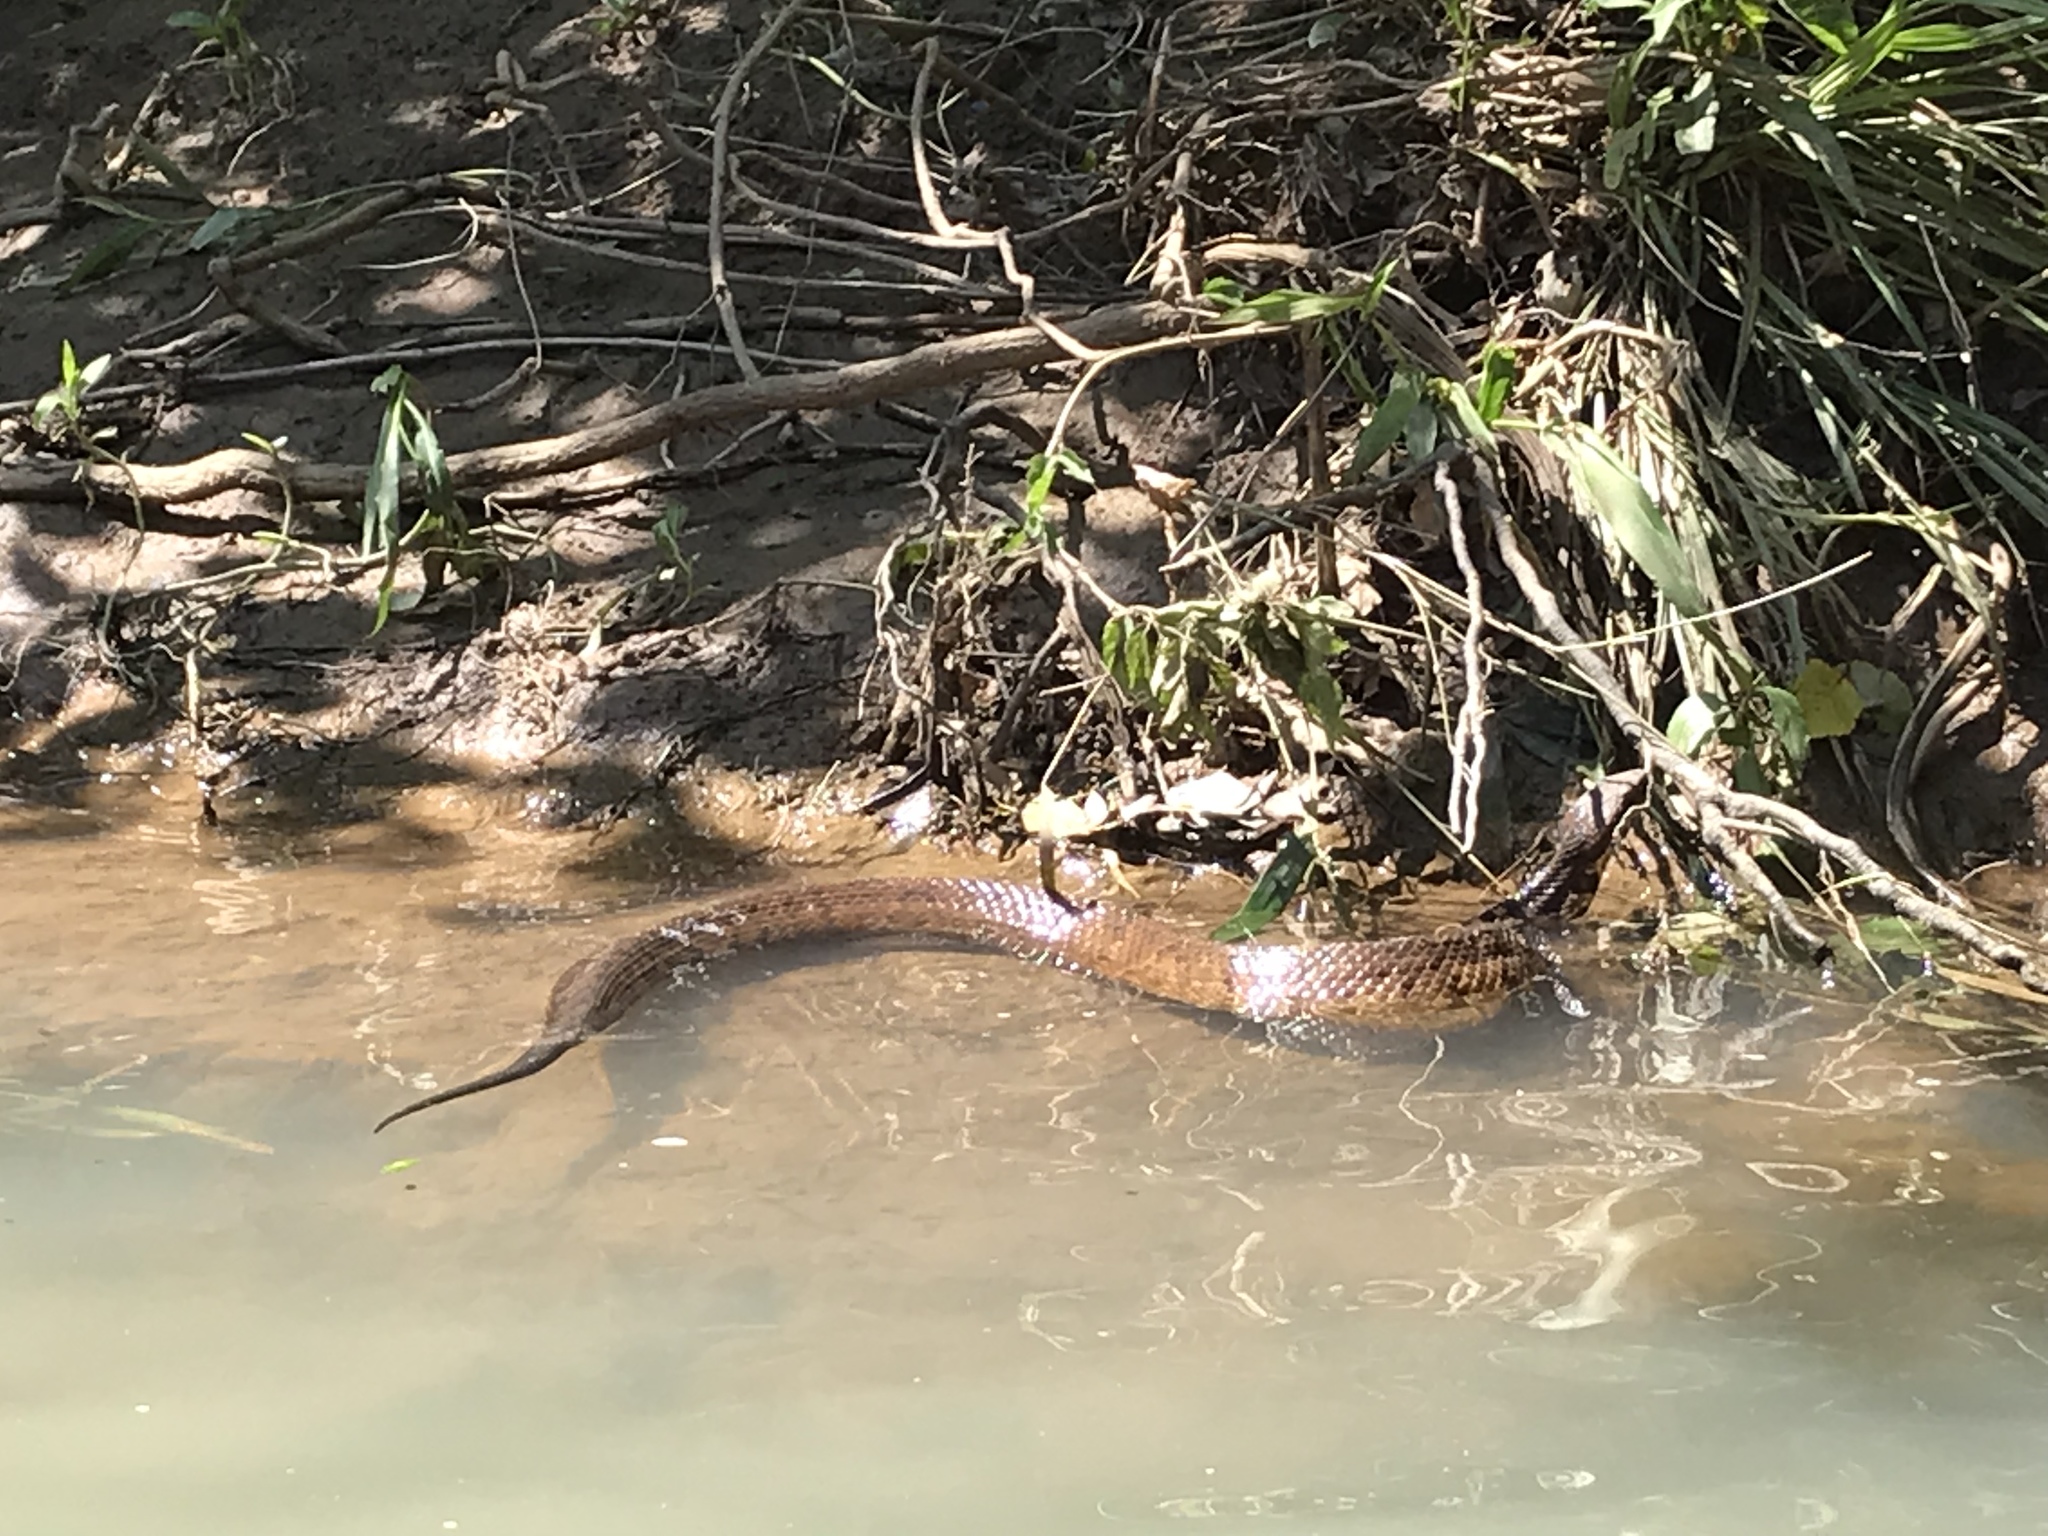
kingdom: Animalia
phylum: Chordata
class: Squamata
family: Viperidae
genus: Agkistrodon
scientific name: Agkistrodon piscivorus
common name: Cottonmouth
